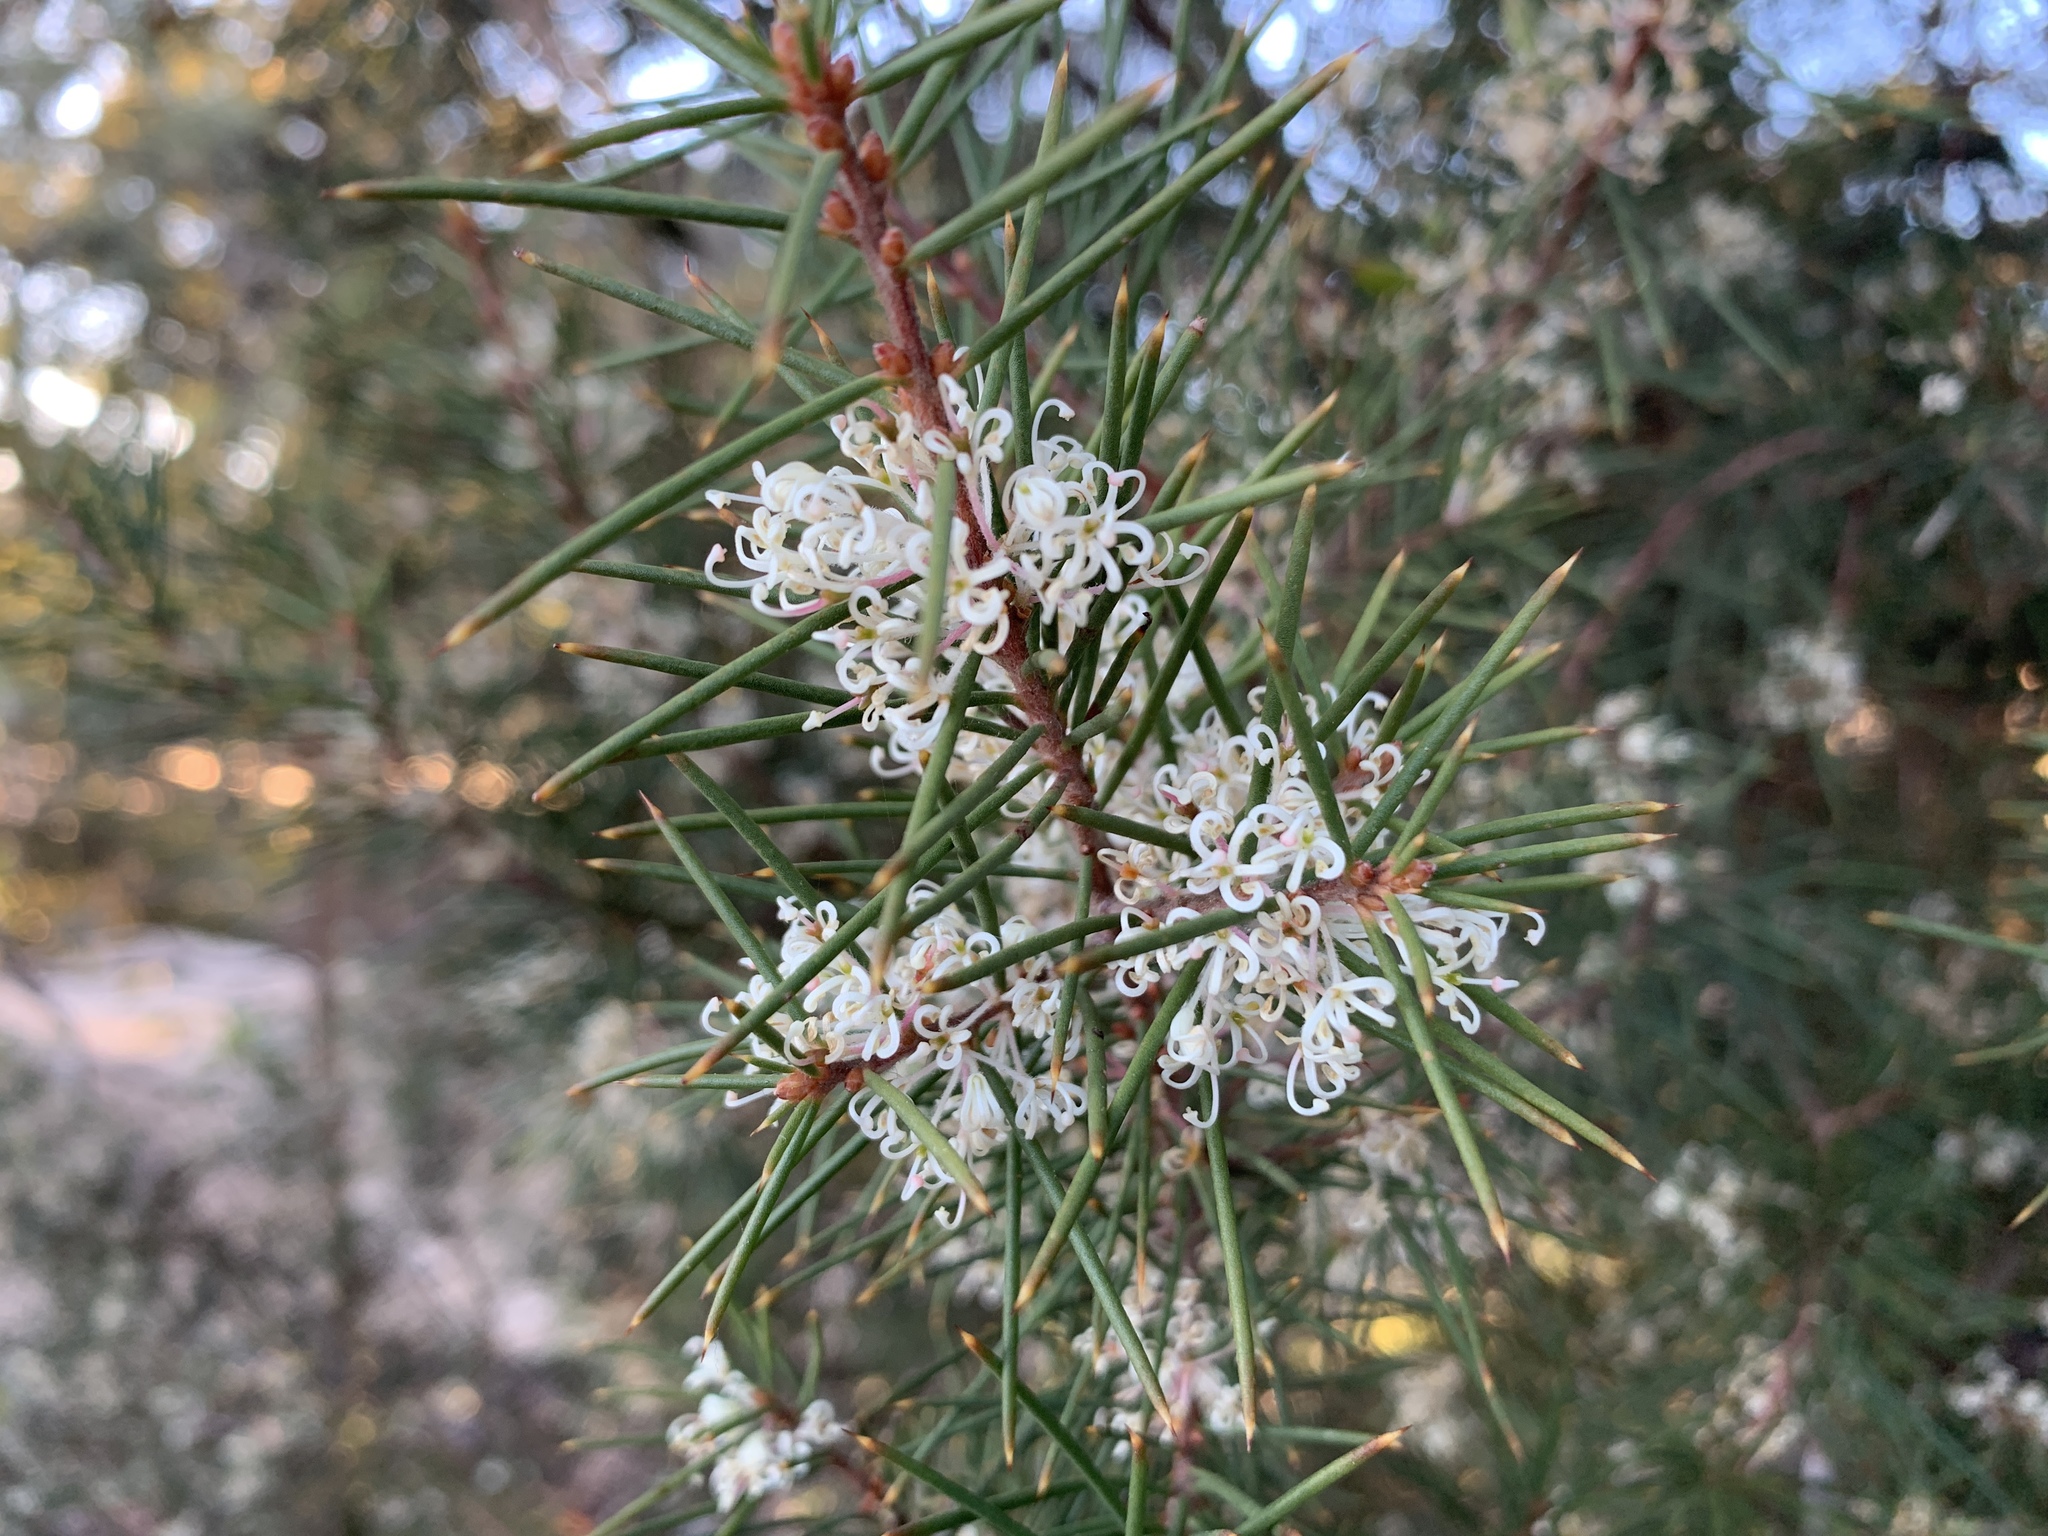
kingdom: Plantae
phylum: Tracheophyta
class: Magnoliopsida
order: Proteales
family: Proteaceae
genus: Hakea
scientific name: Hakea sericea
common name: Needle bush
